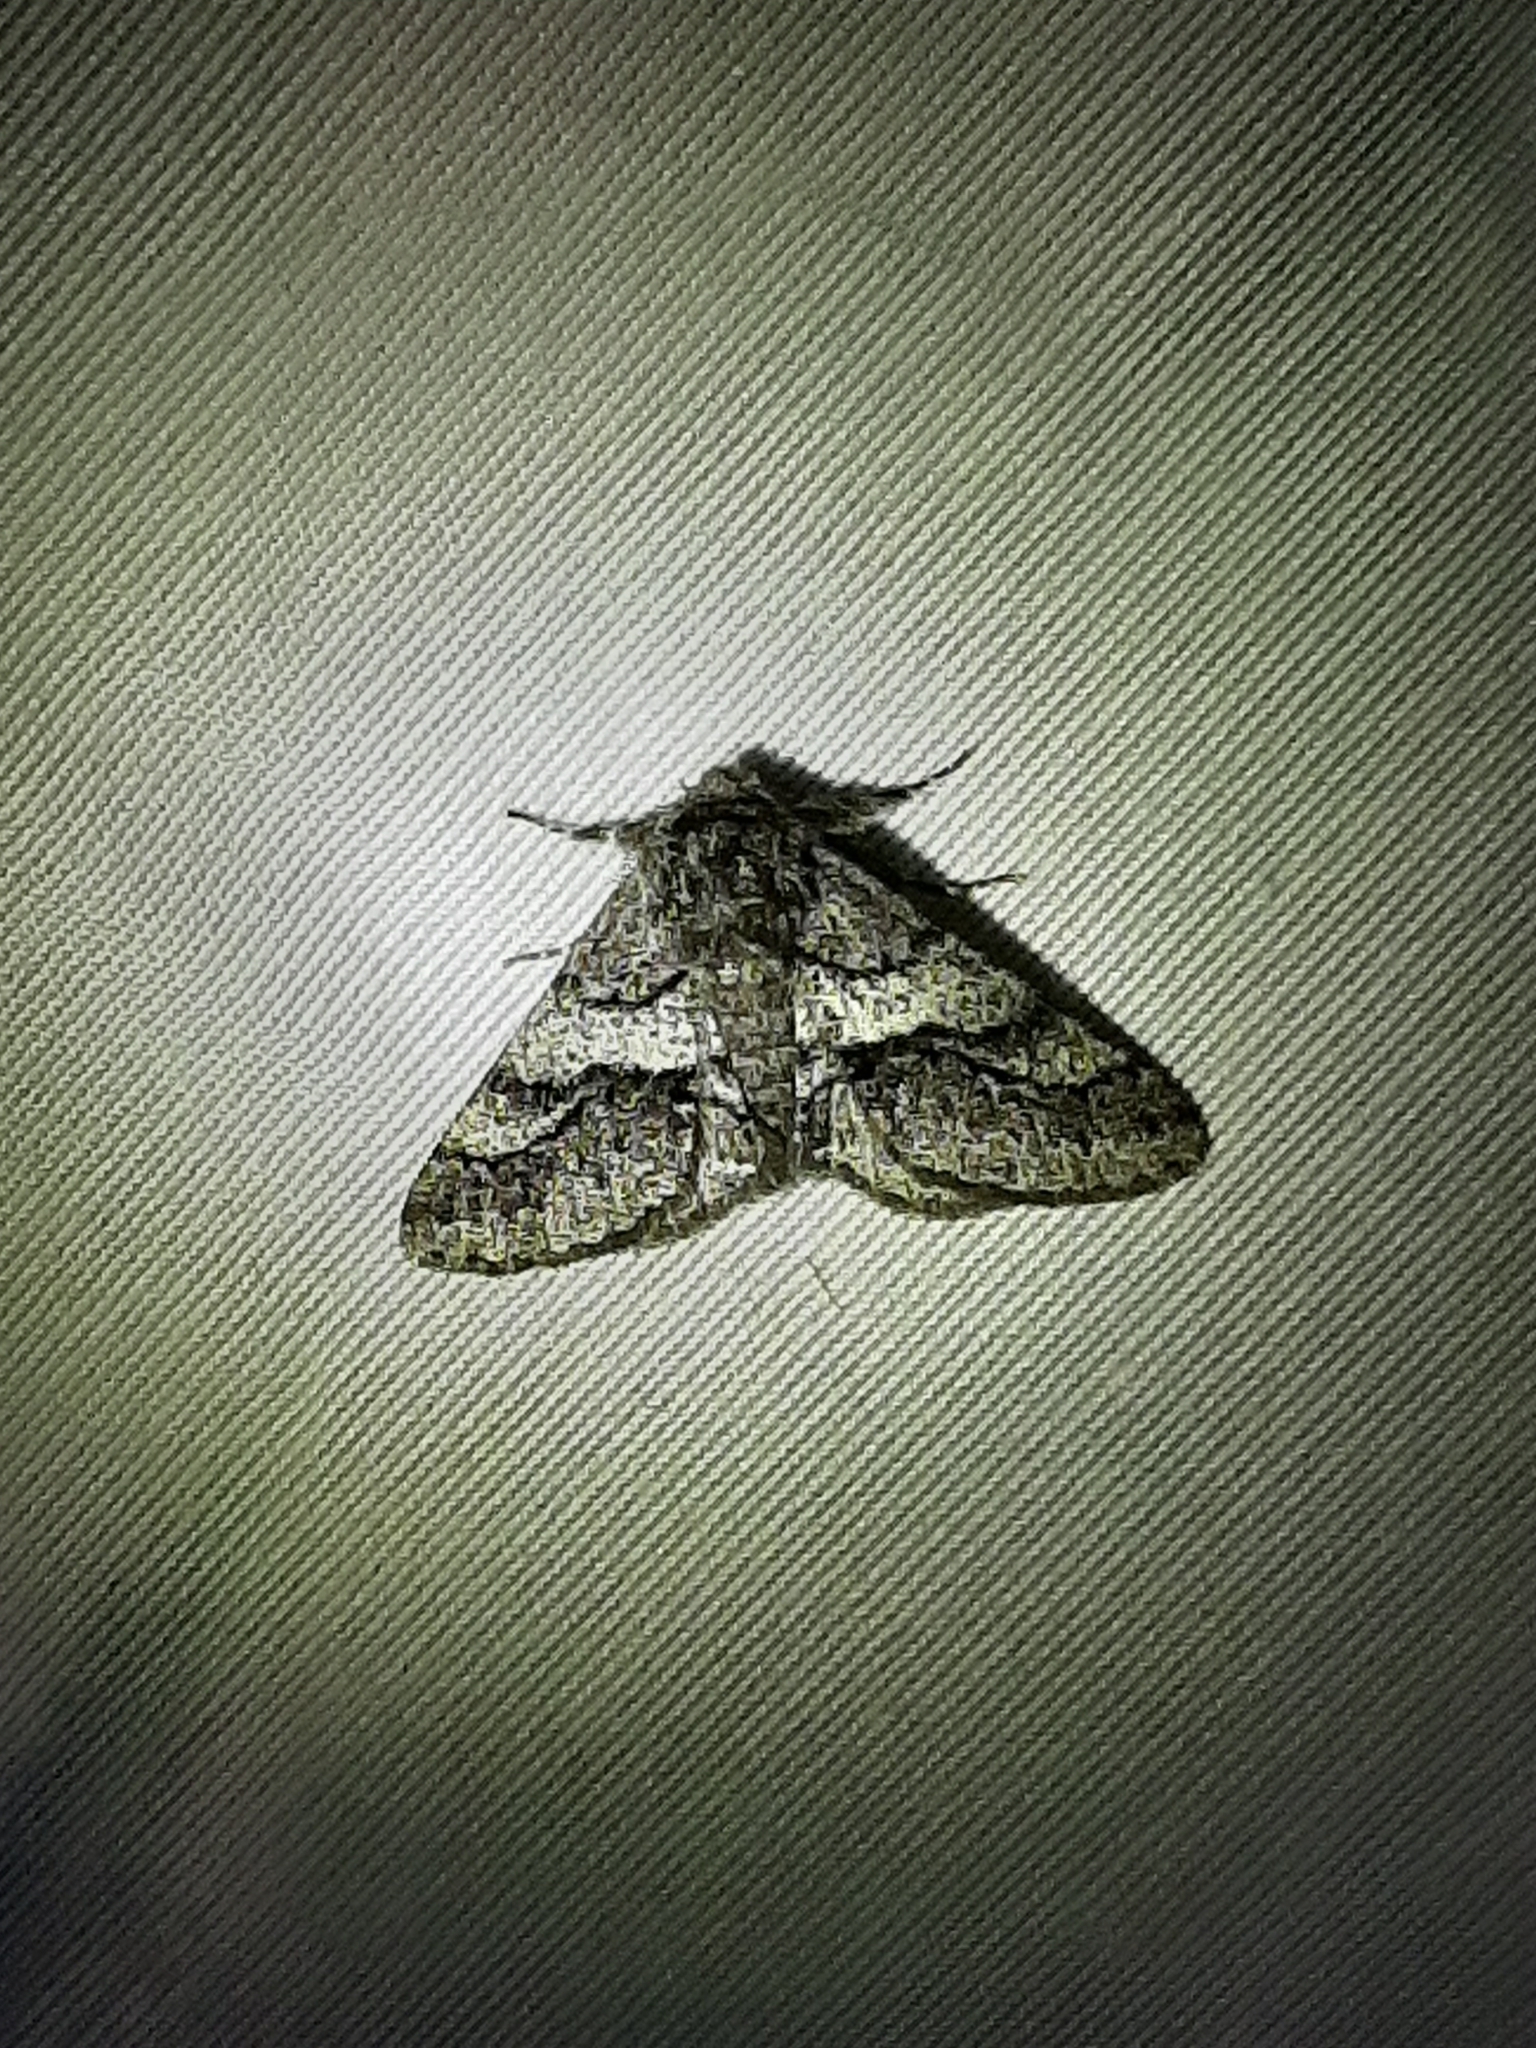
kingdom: Animalia
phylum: Arthropoda
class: Insecta
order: Lepidoptera
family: Geometridae
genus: Lycia
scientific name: Lycia ypsilon
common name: Wooly gray
